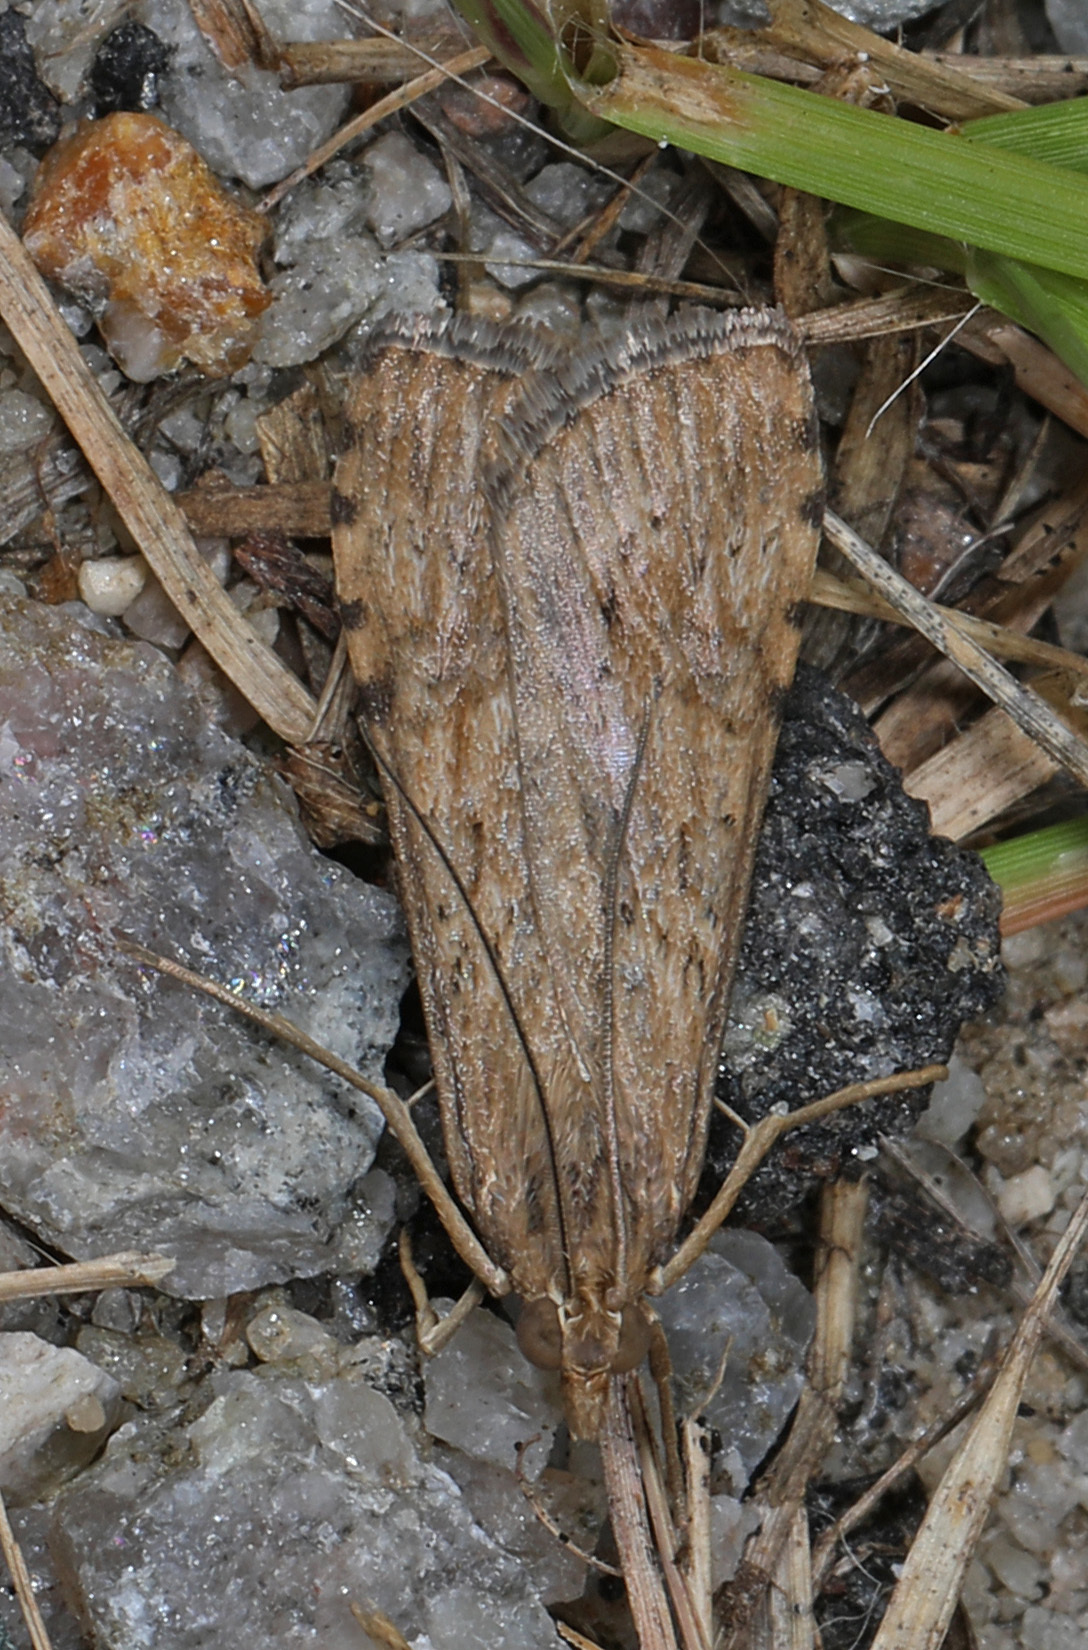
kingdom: Animalia
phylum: Arthropoda
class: Insecta
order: Lepidoptera
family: Crambidae
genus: Nomophila
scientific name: Nomophila nearctica
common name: American rush veneer
